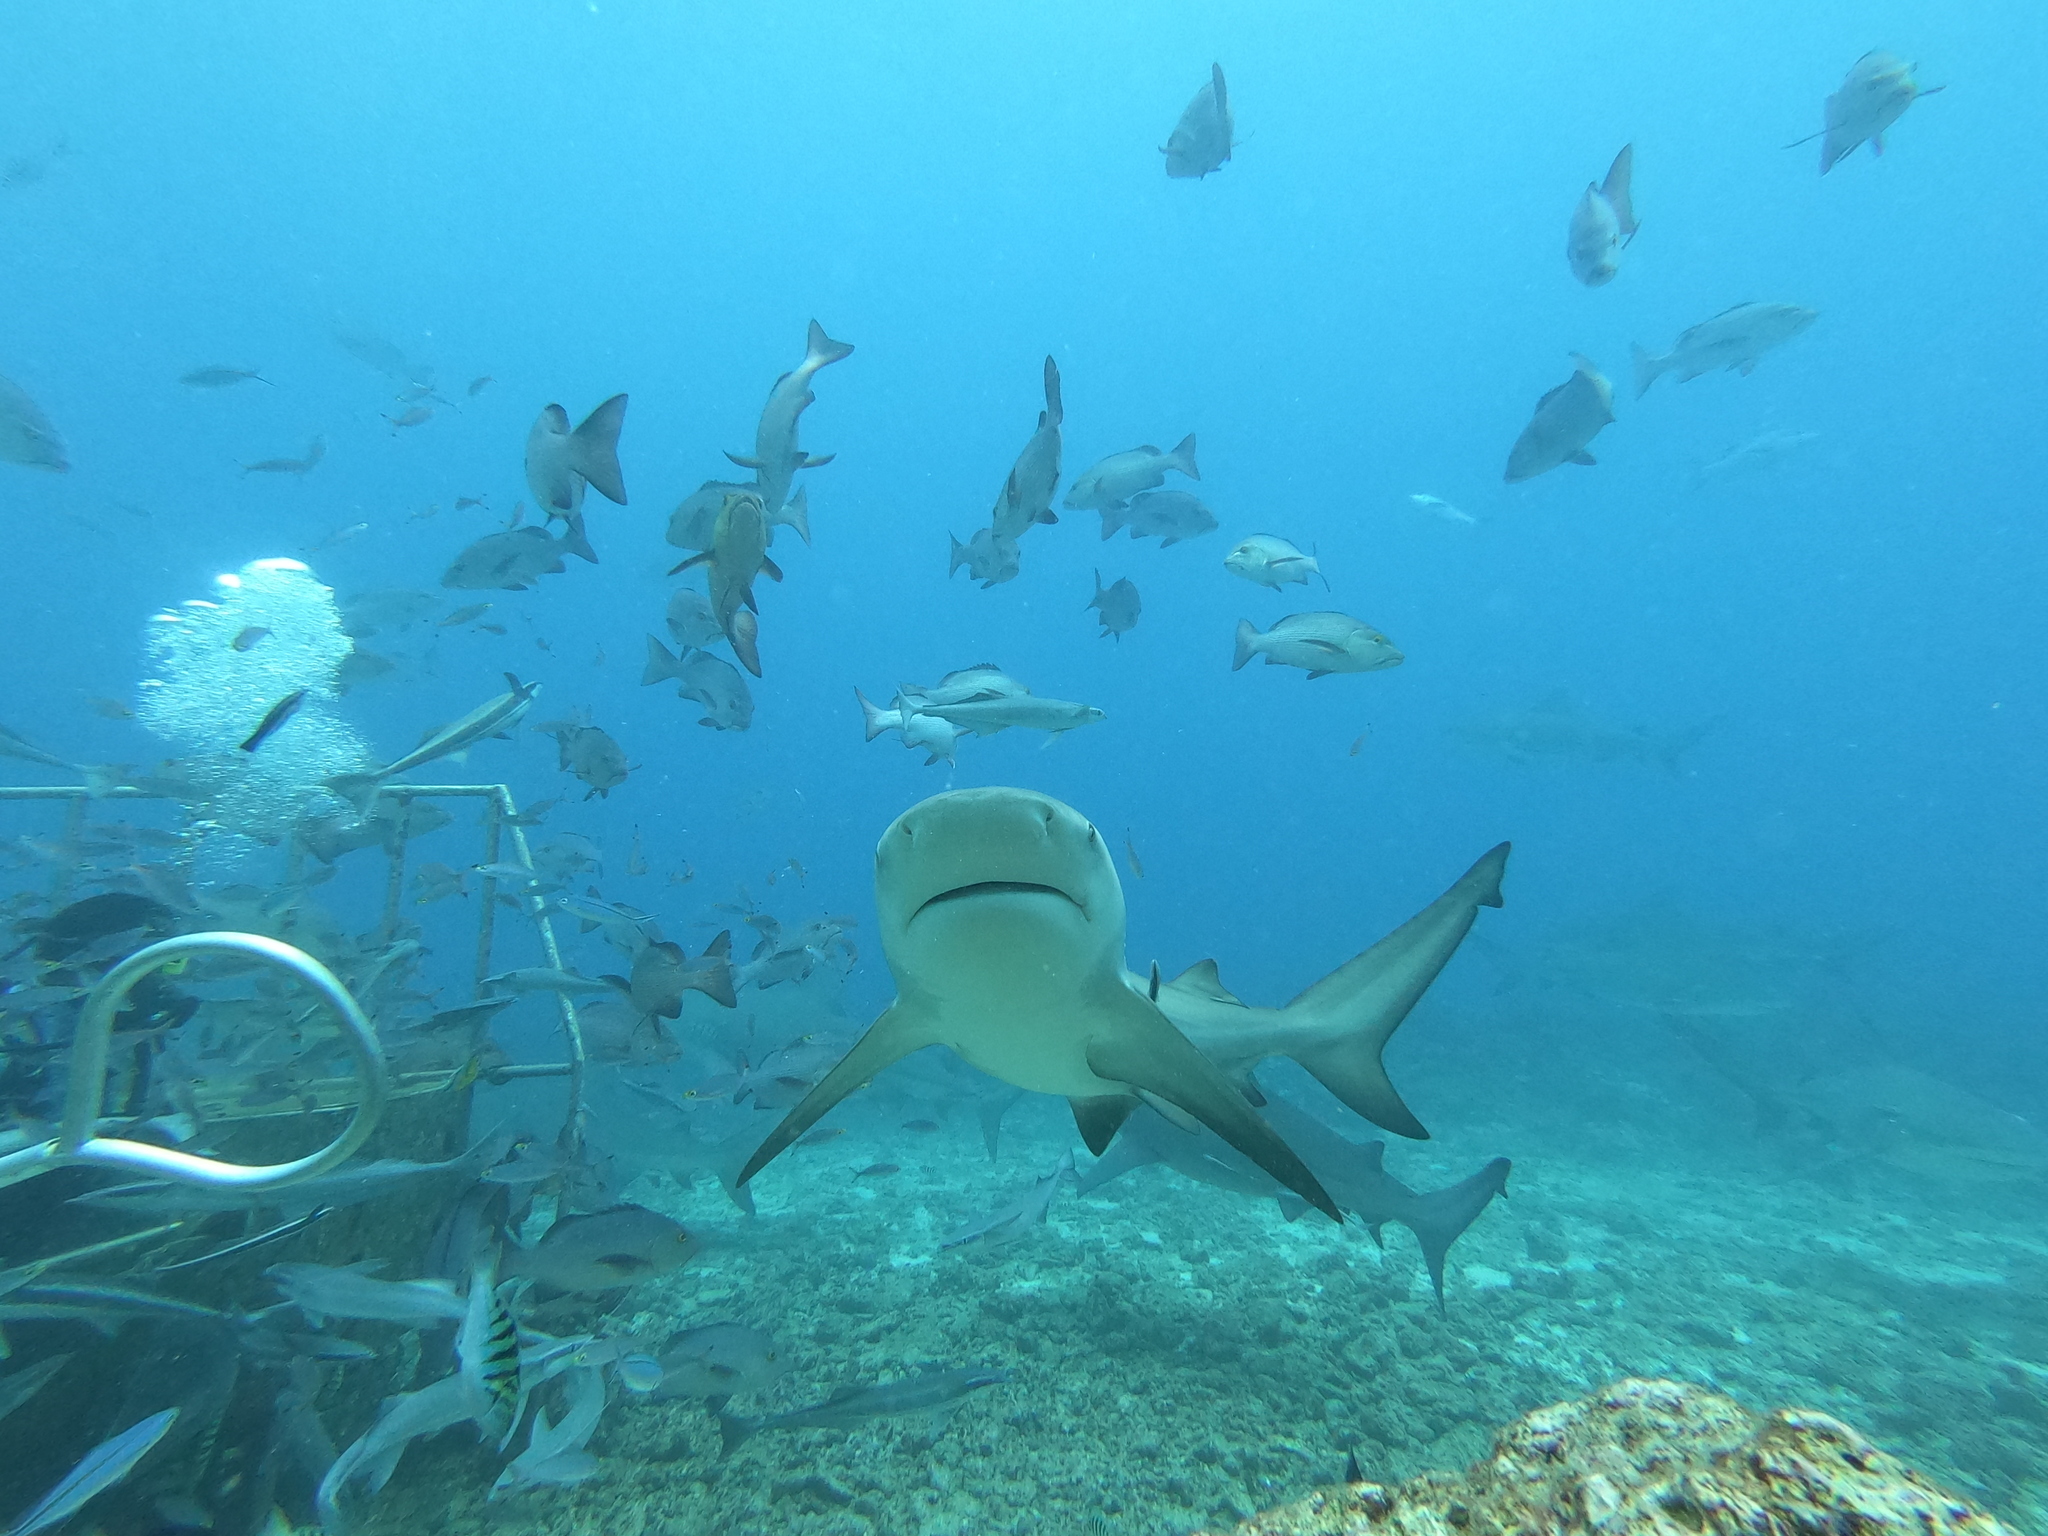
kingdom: Animalia
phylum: Chordata
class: Elasmobranchii
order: Carcharhiniformes
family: Carcharhinidae
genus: Carcharhinus
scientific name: Carcharhinus leucas
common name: Bull shark
